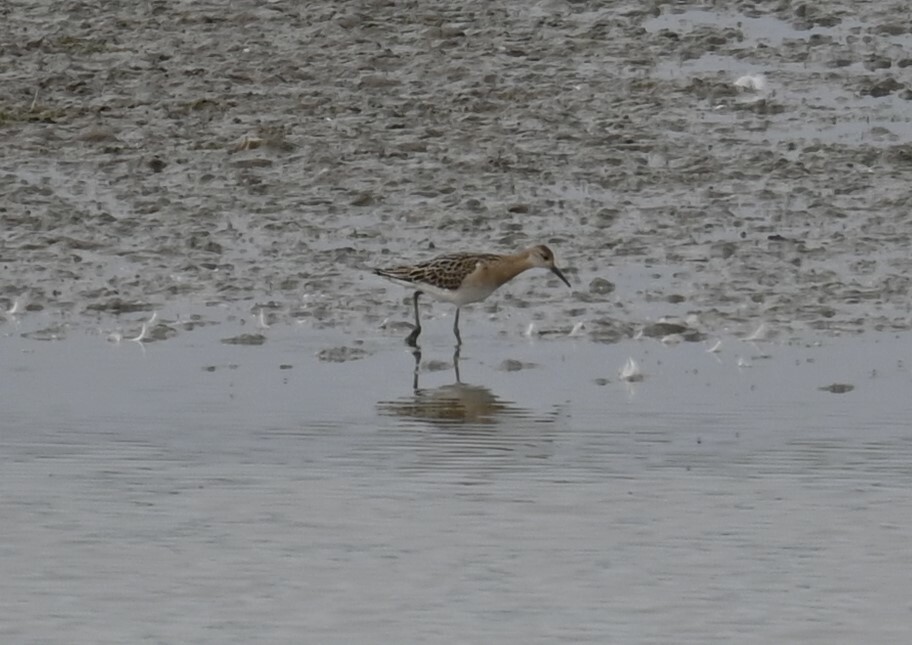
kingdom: Animalia
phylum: Chordata
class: Aves
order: Charadriiformes
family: Scolopacidae
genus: Calidris
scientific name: Calidris pugnax
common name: Ruff
